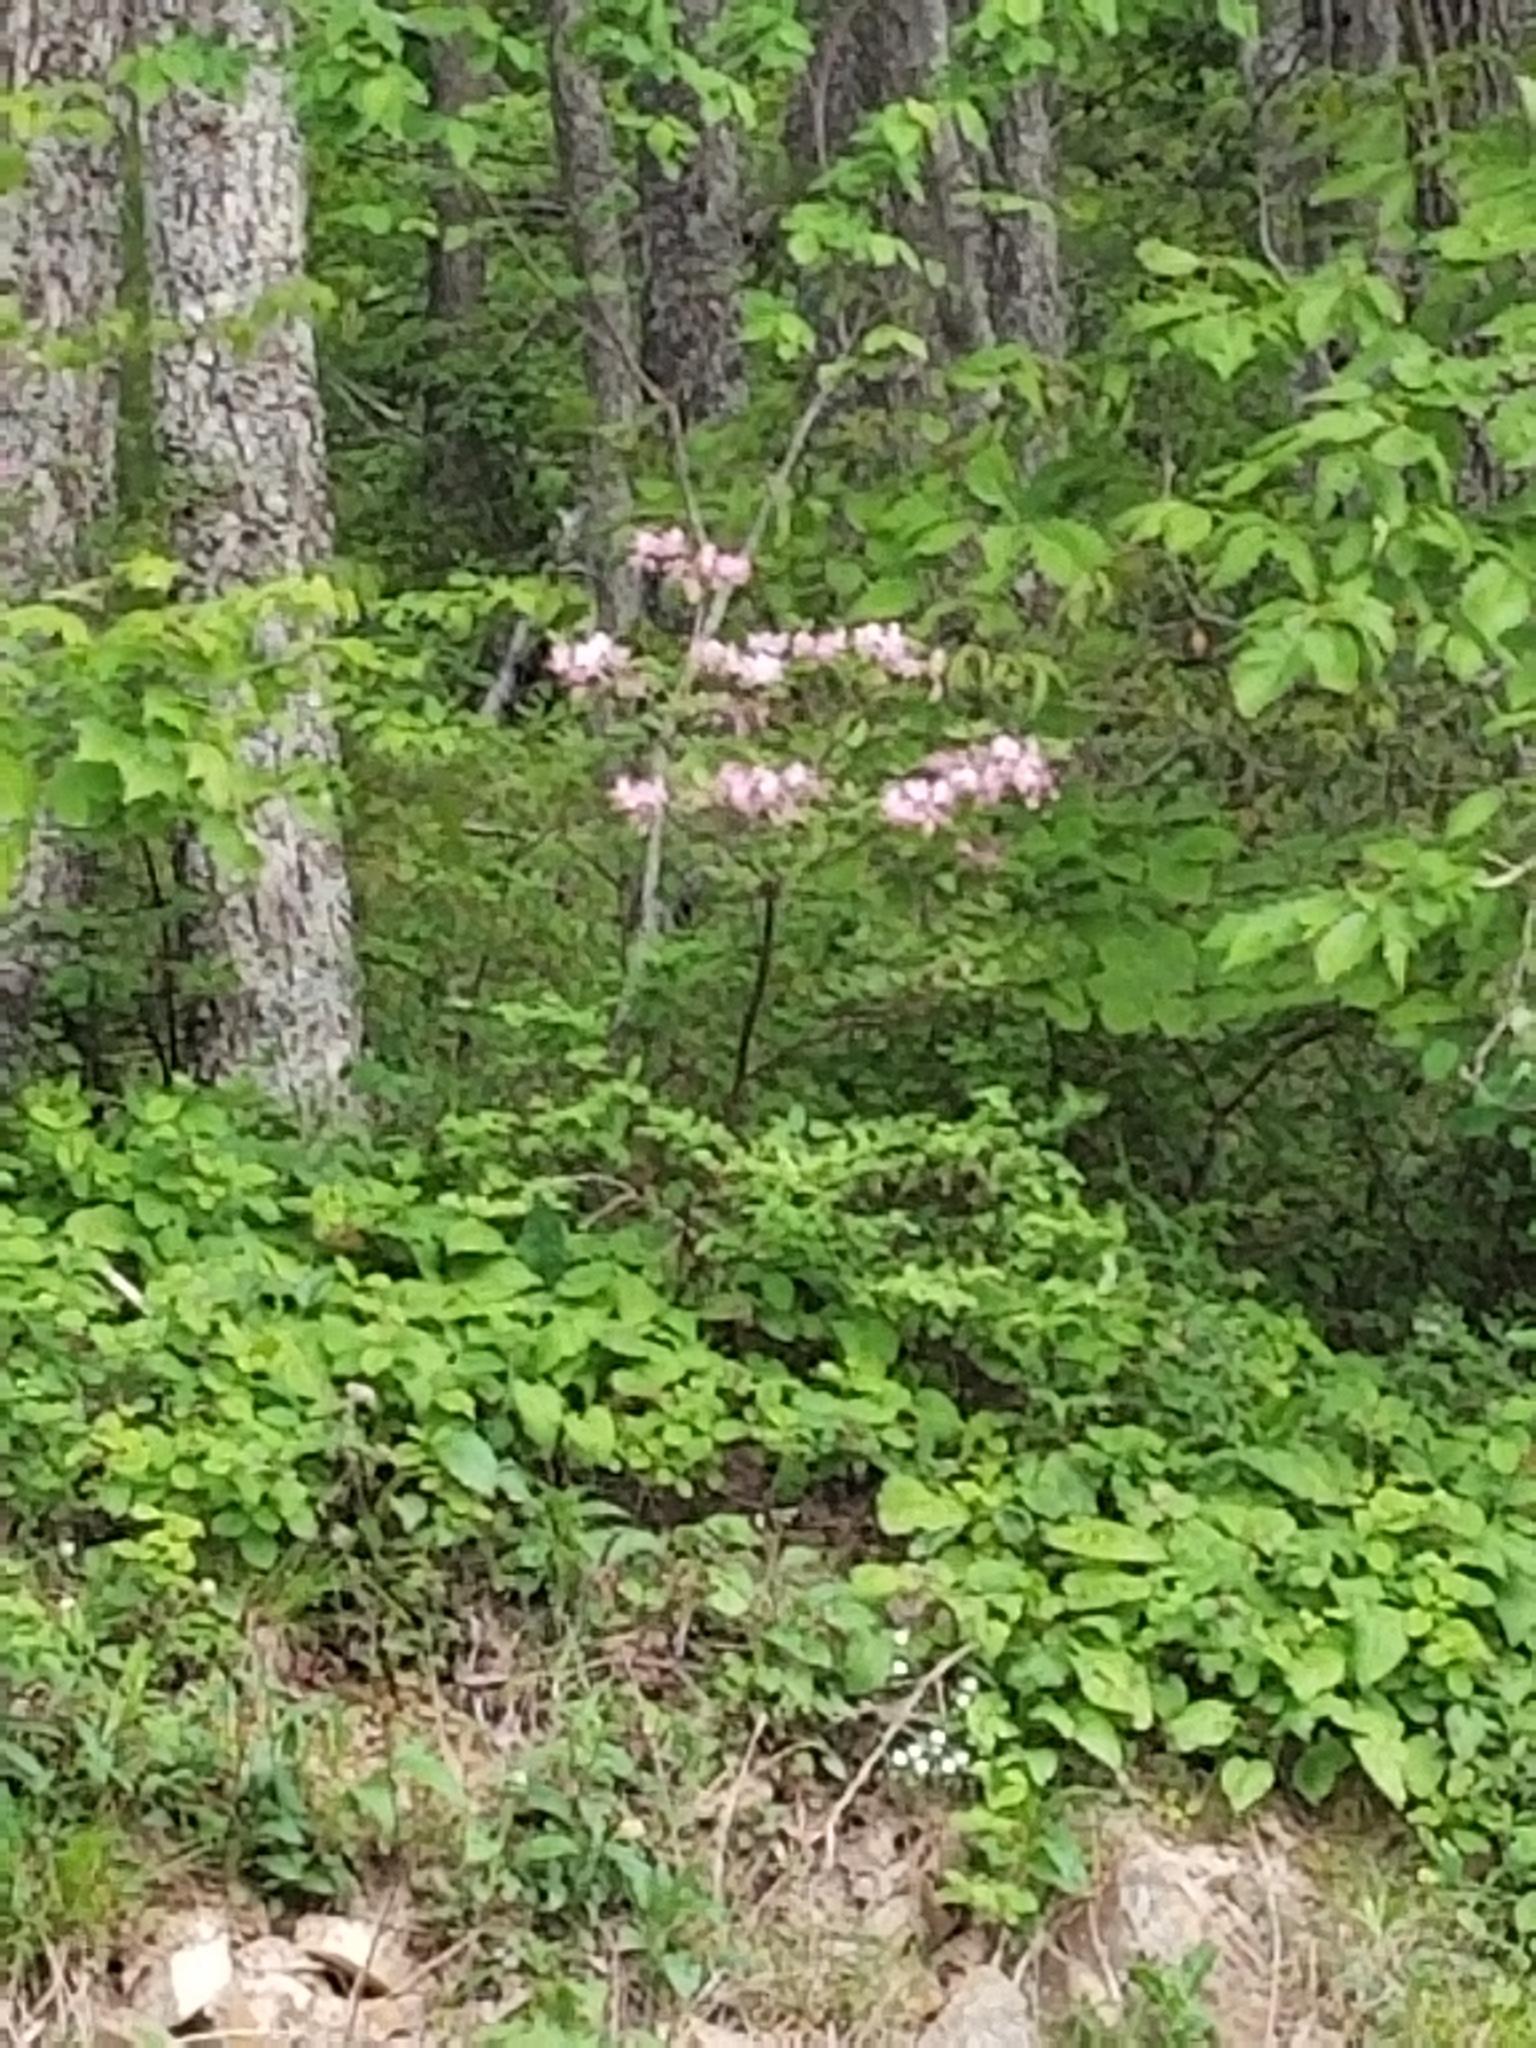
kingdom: Plantae
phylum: Tracheophyta
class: Magnoliopsida
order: Ericales
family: Ericaceae
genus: Rhododendron
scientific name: Rhododendron periclymenoides
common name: Election-pink
